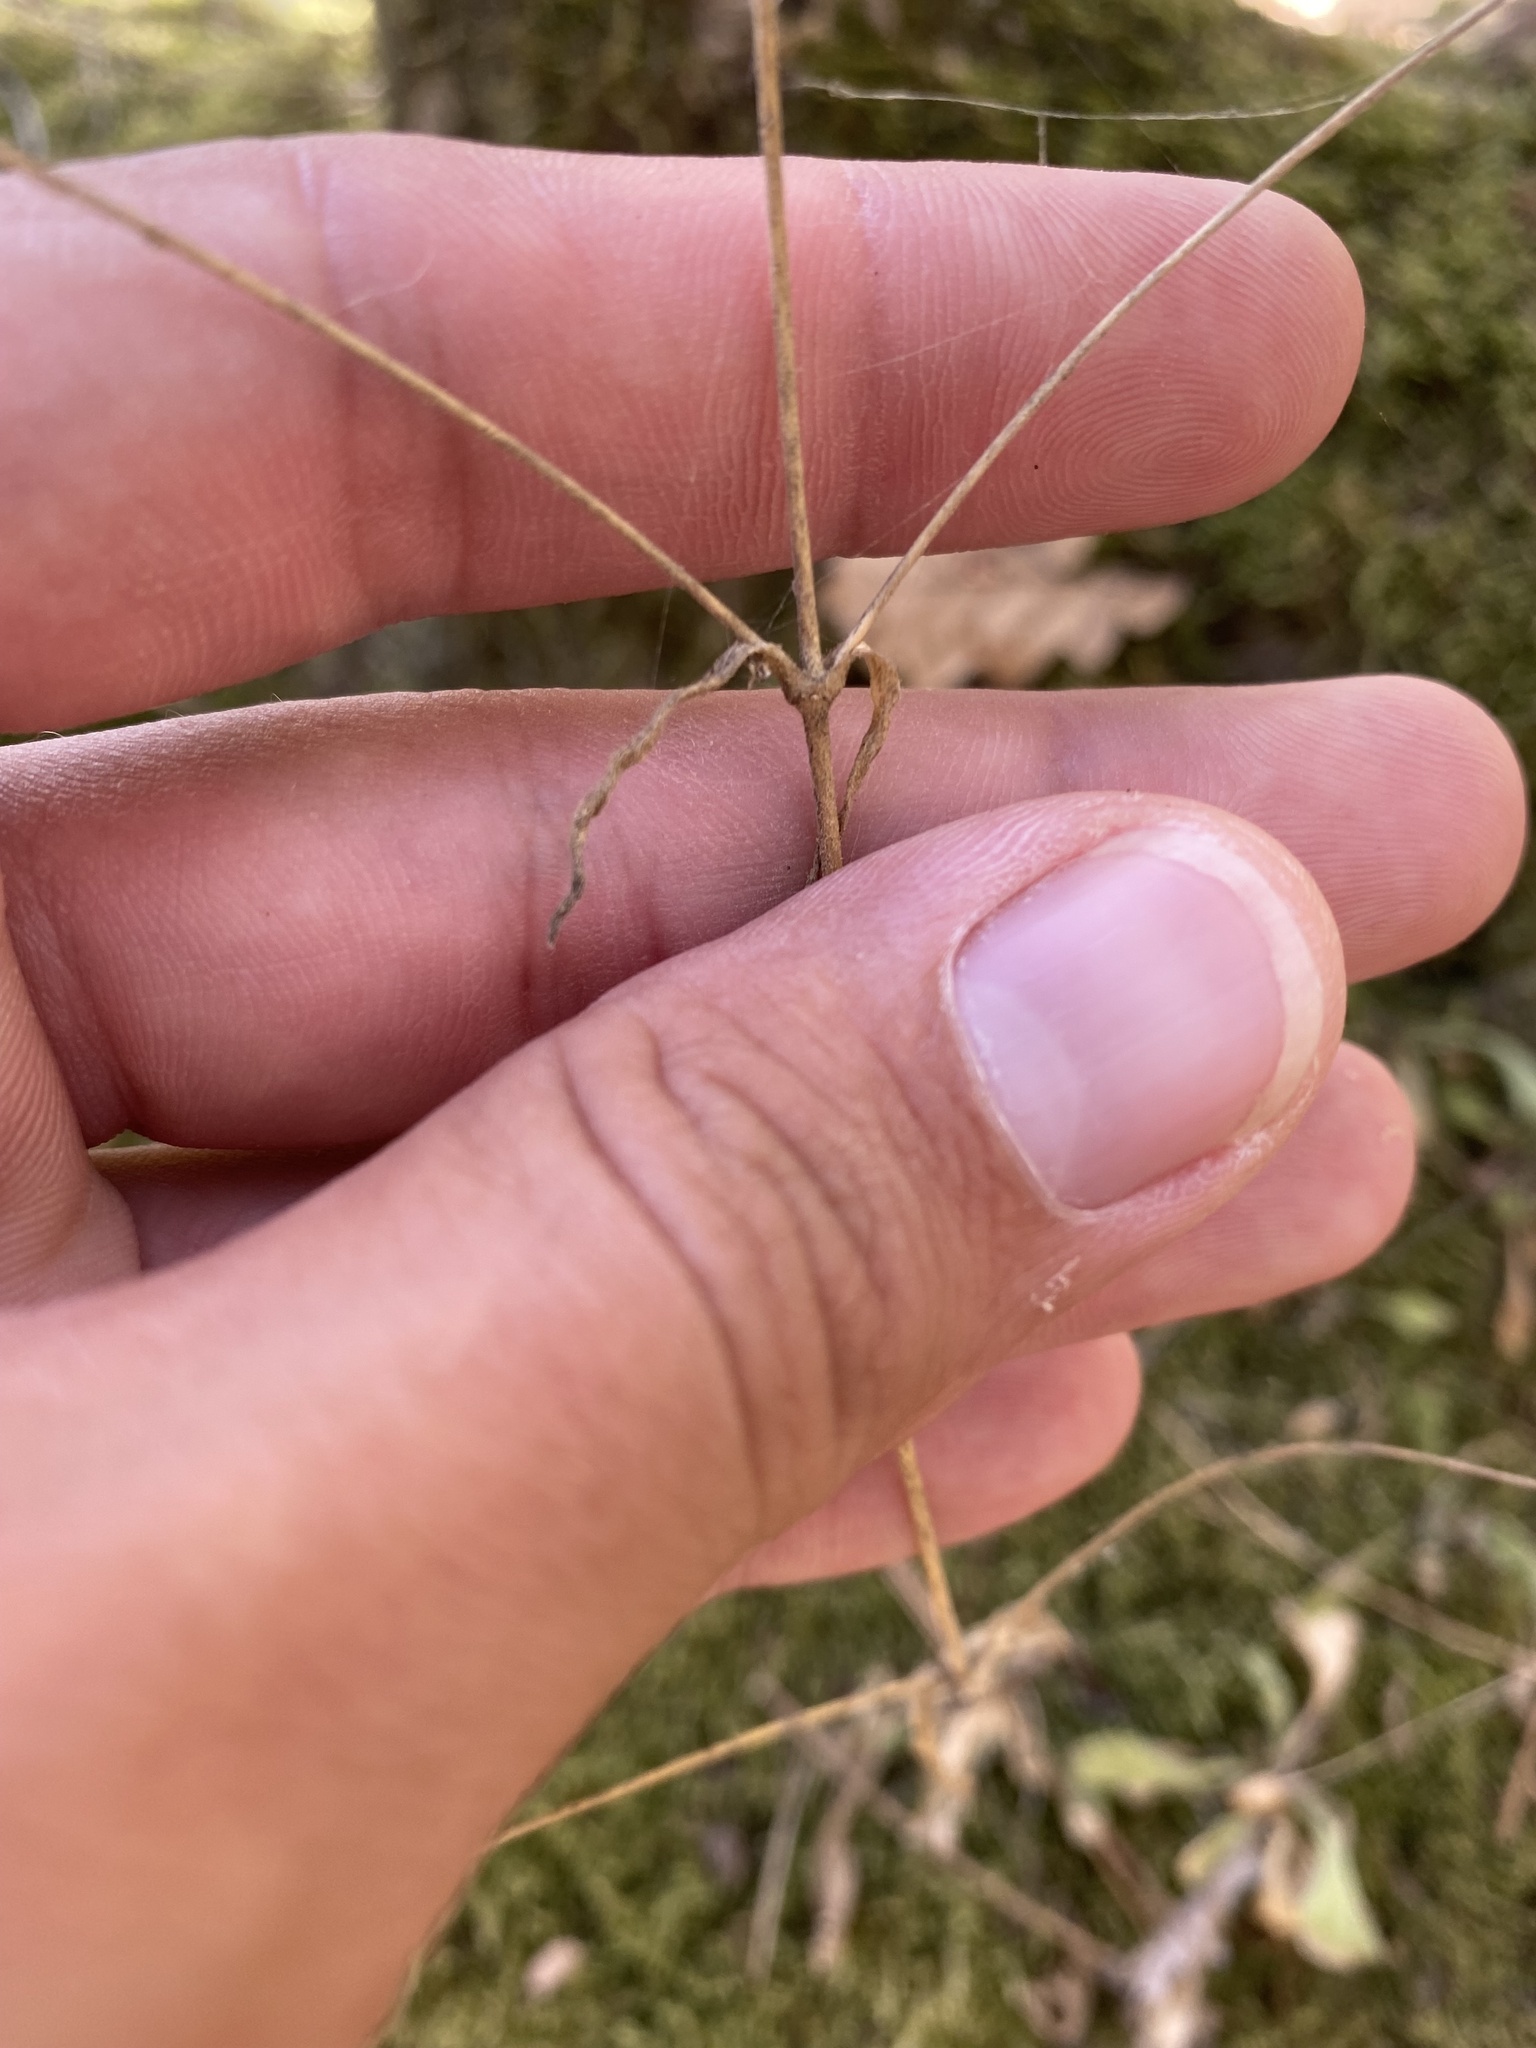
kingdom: Plantae
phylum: Tracheophyta
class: Magnoliopsida
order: Caryophyllales
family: Caryophyllaceae
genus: Silene
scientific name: Silene italica
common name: Italian catchfly
